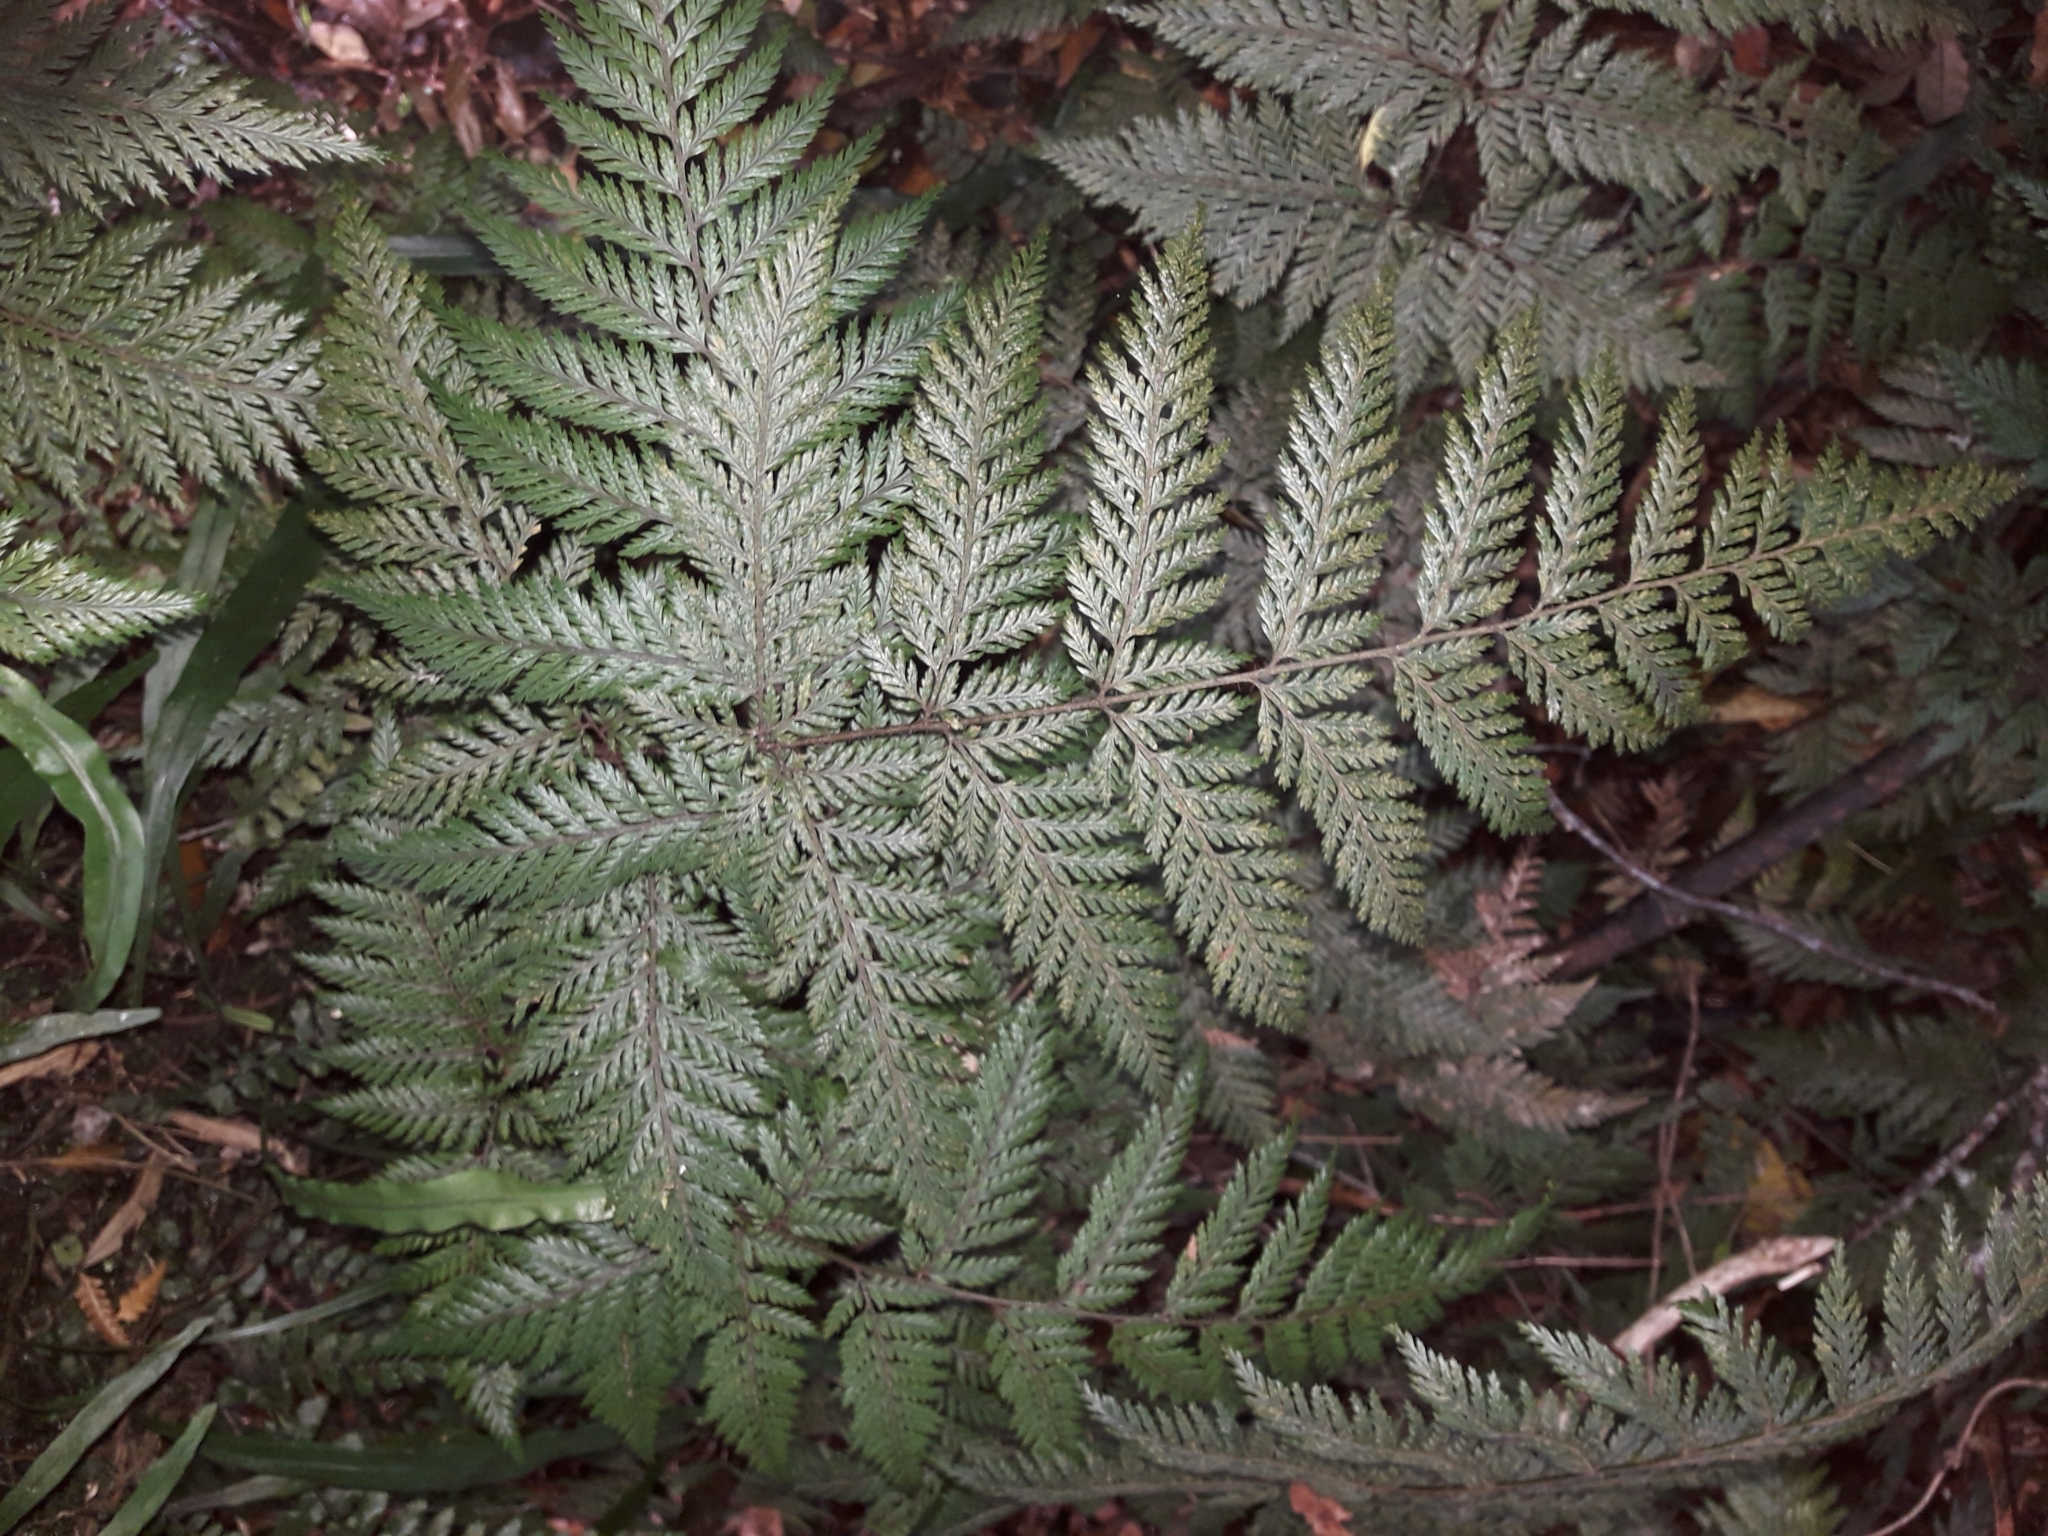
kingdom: Plantae
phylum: Tracheophyta
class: Polypodiopsida
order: Polypodiales
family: Dryopteridaceae
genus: Lastreopsis
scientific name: Lastreopsis hispida
